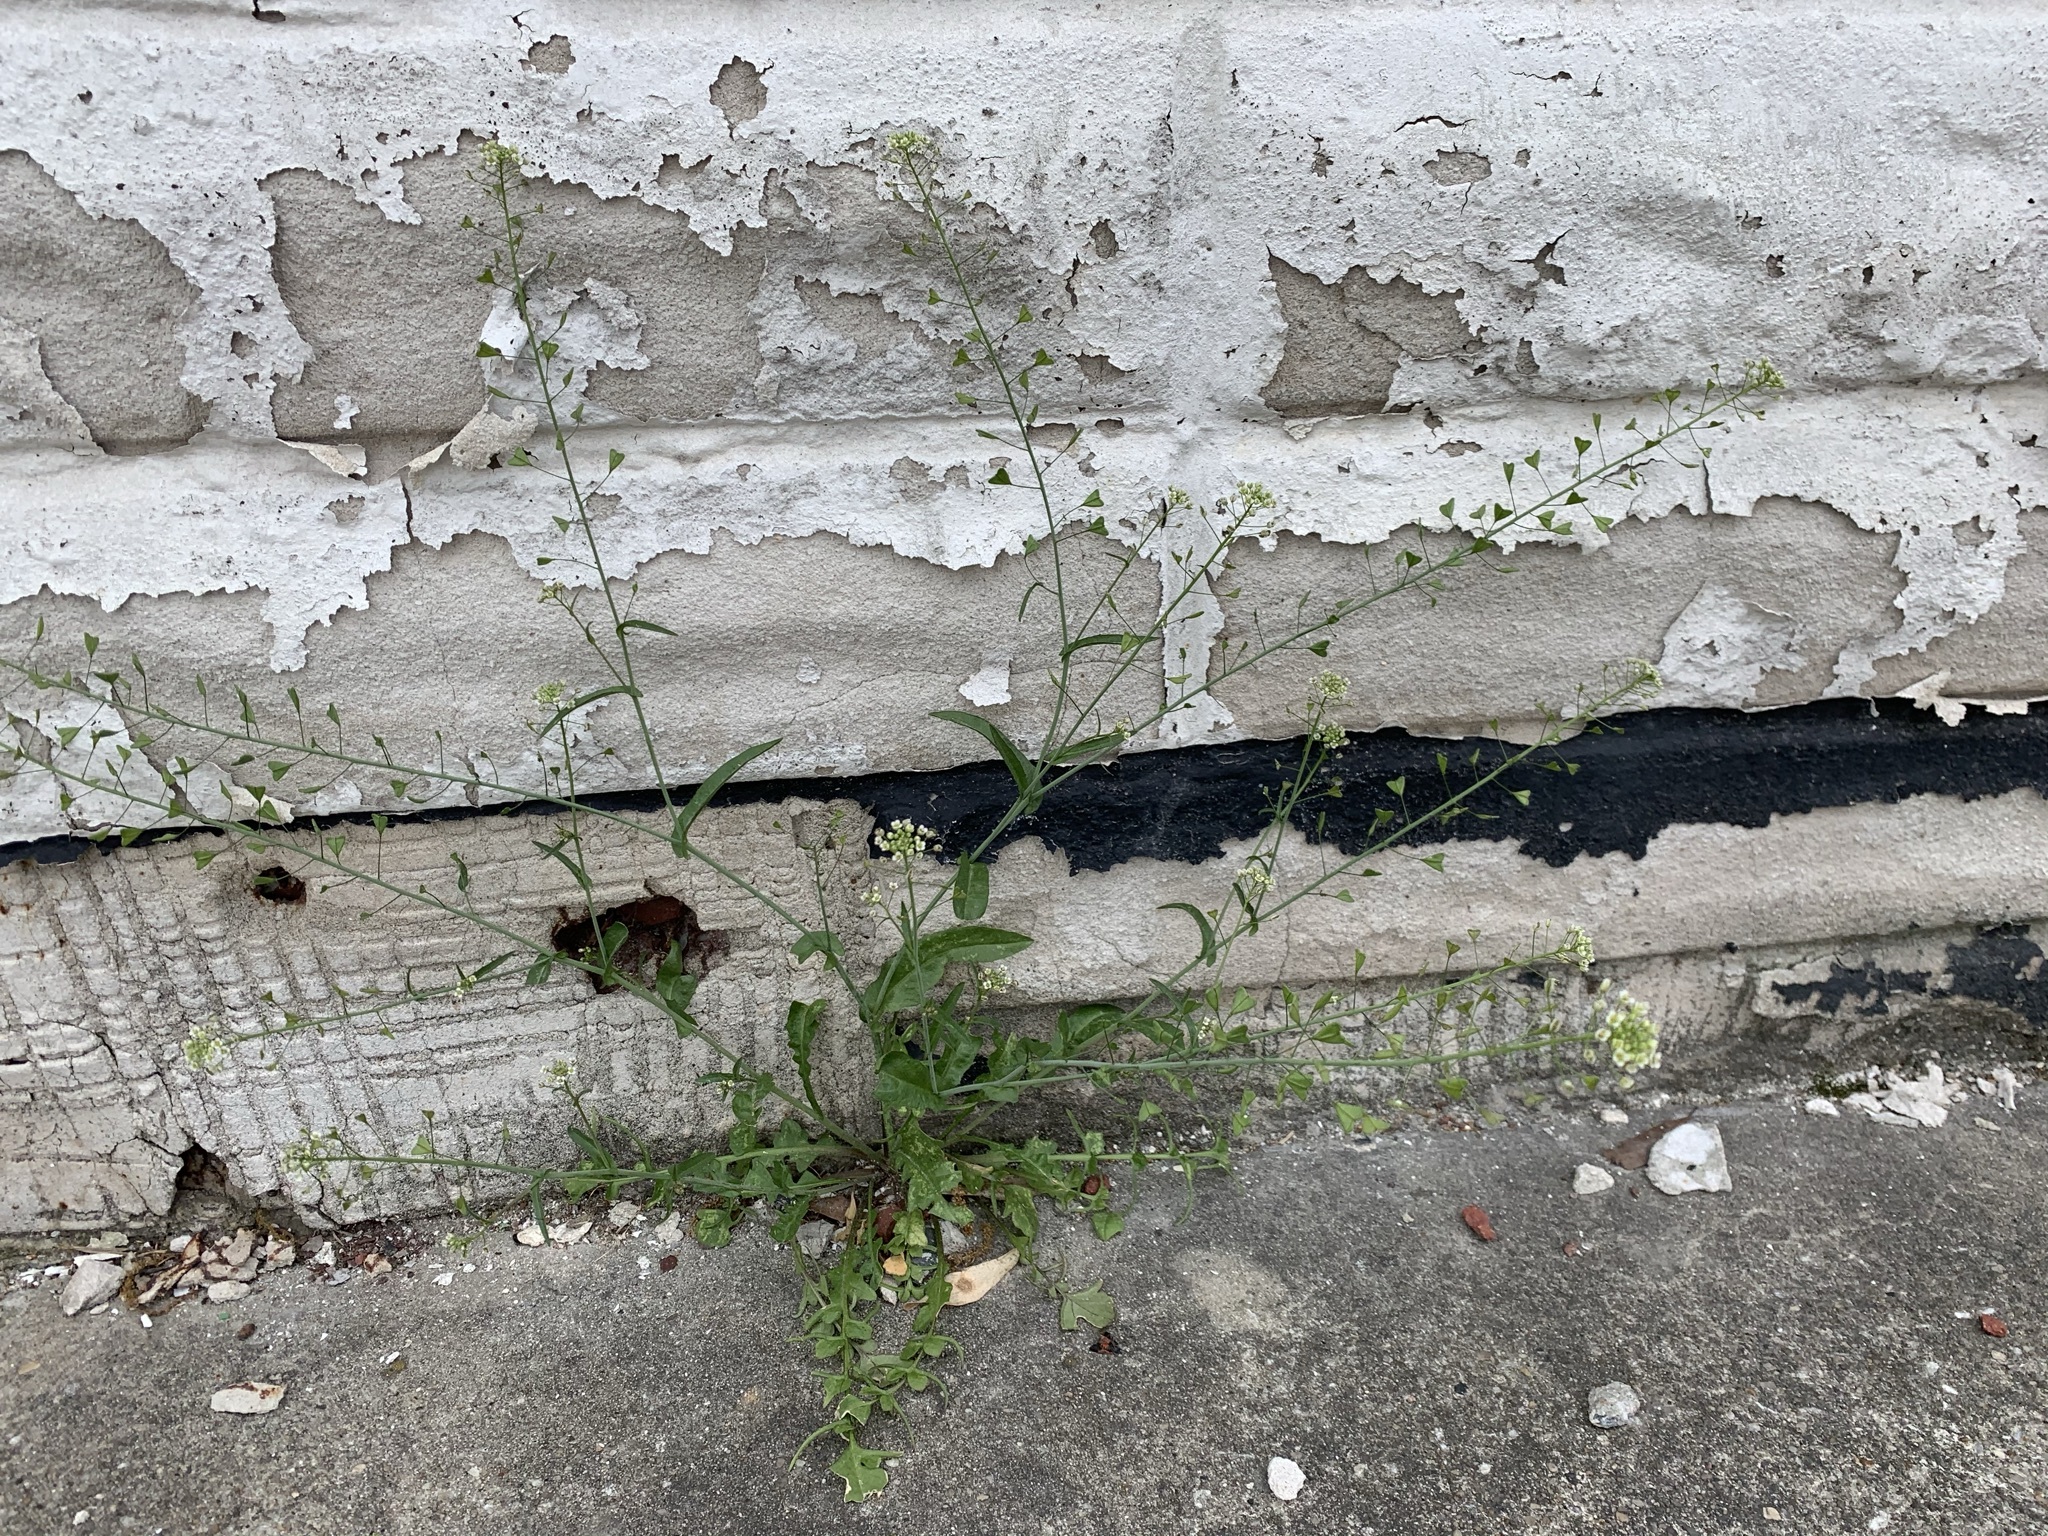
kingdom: Plantae
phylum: Tracheophyta
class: Magnoliopsida
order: Brassicales
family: Brassicaceae
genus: Capsella
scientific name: Capsella bursa-pastoris
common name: Shepherd's purse
